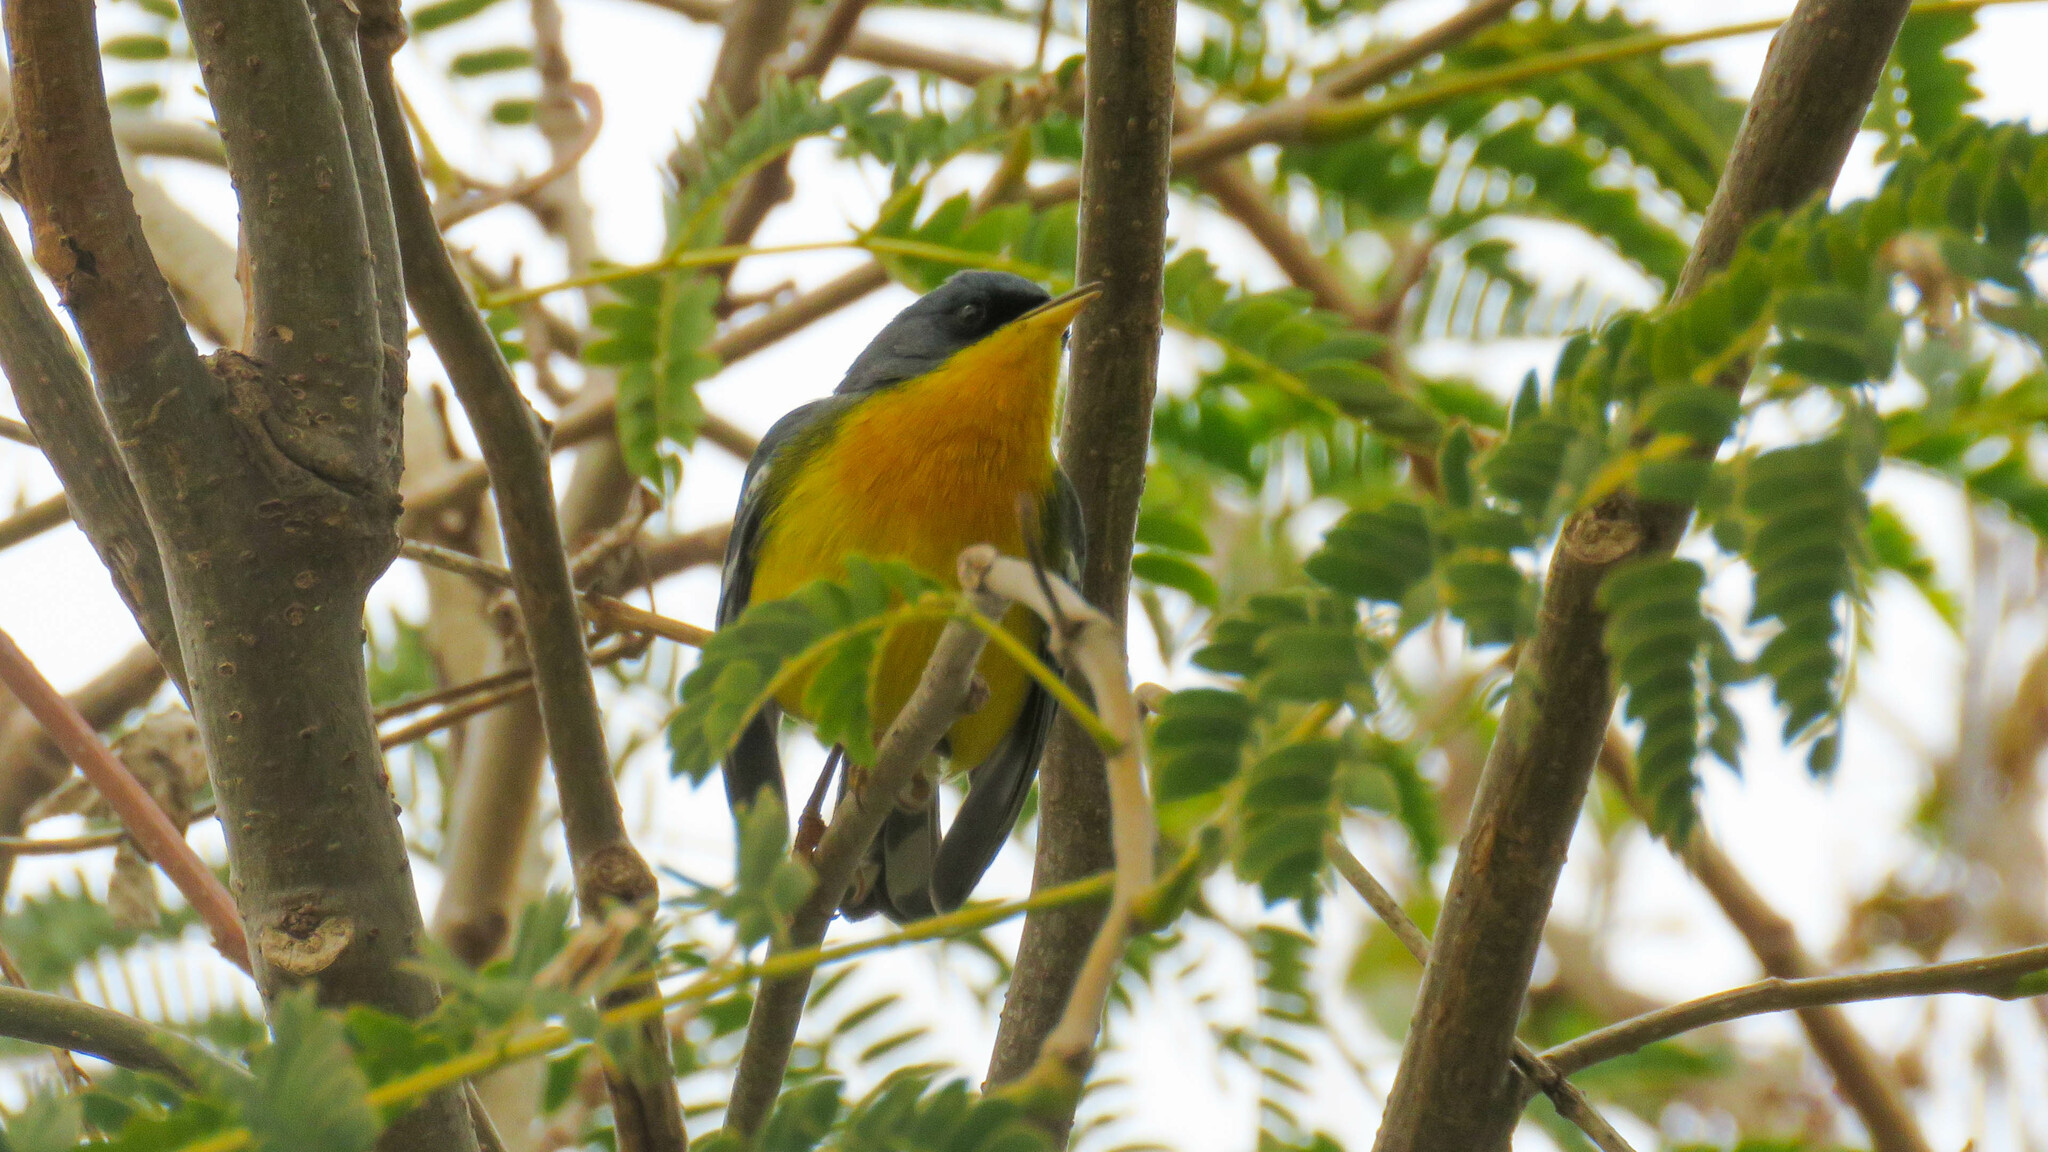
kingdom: Animalia
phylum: Chordata
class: Aves
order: Passeriformes
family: Parulidae
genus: Setophaga
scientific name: Setophaga pitiayumi
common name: Tropical parula
